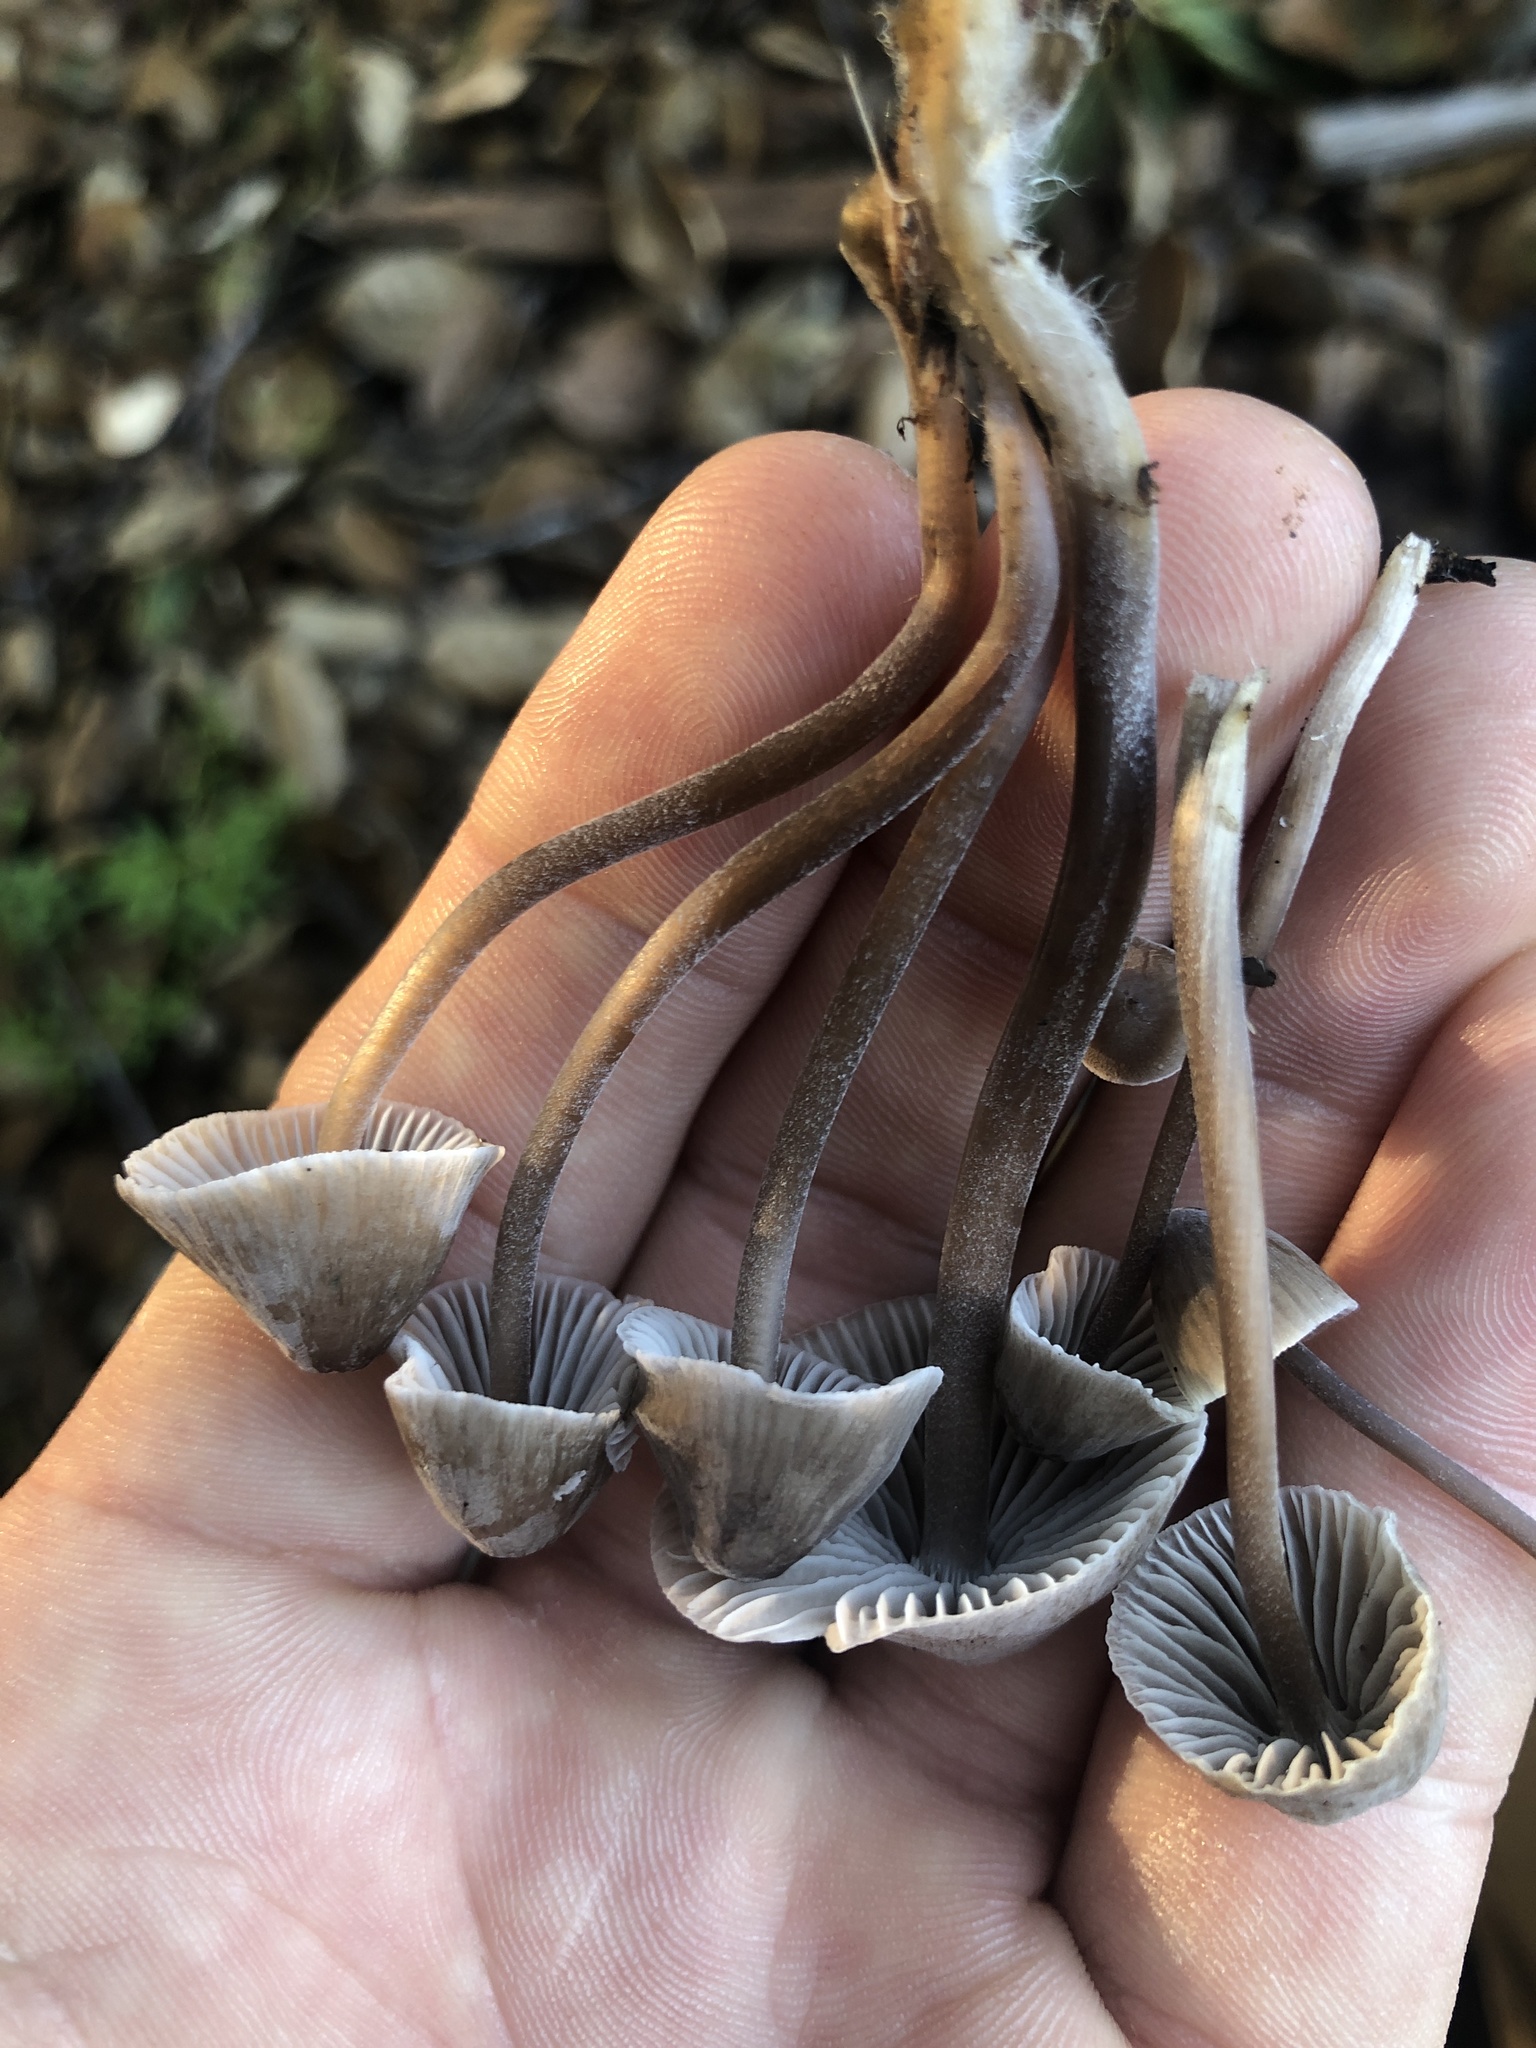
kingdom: Fungi
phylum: Basidiomycota
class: Agaricomycetes
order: Agaricales
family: Mycenaceae
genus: Mycena
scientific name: Mycena leptocephala
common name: Nitrous bonnet
